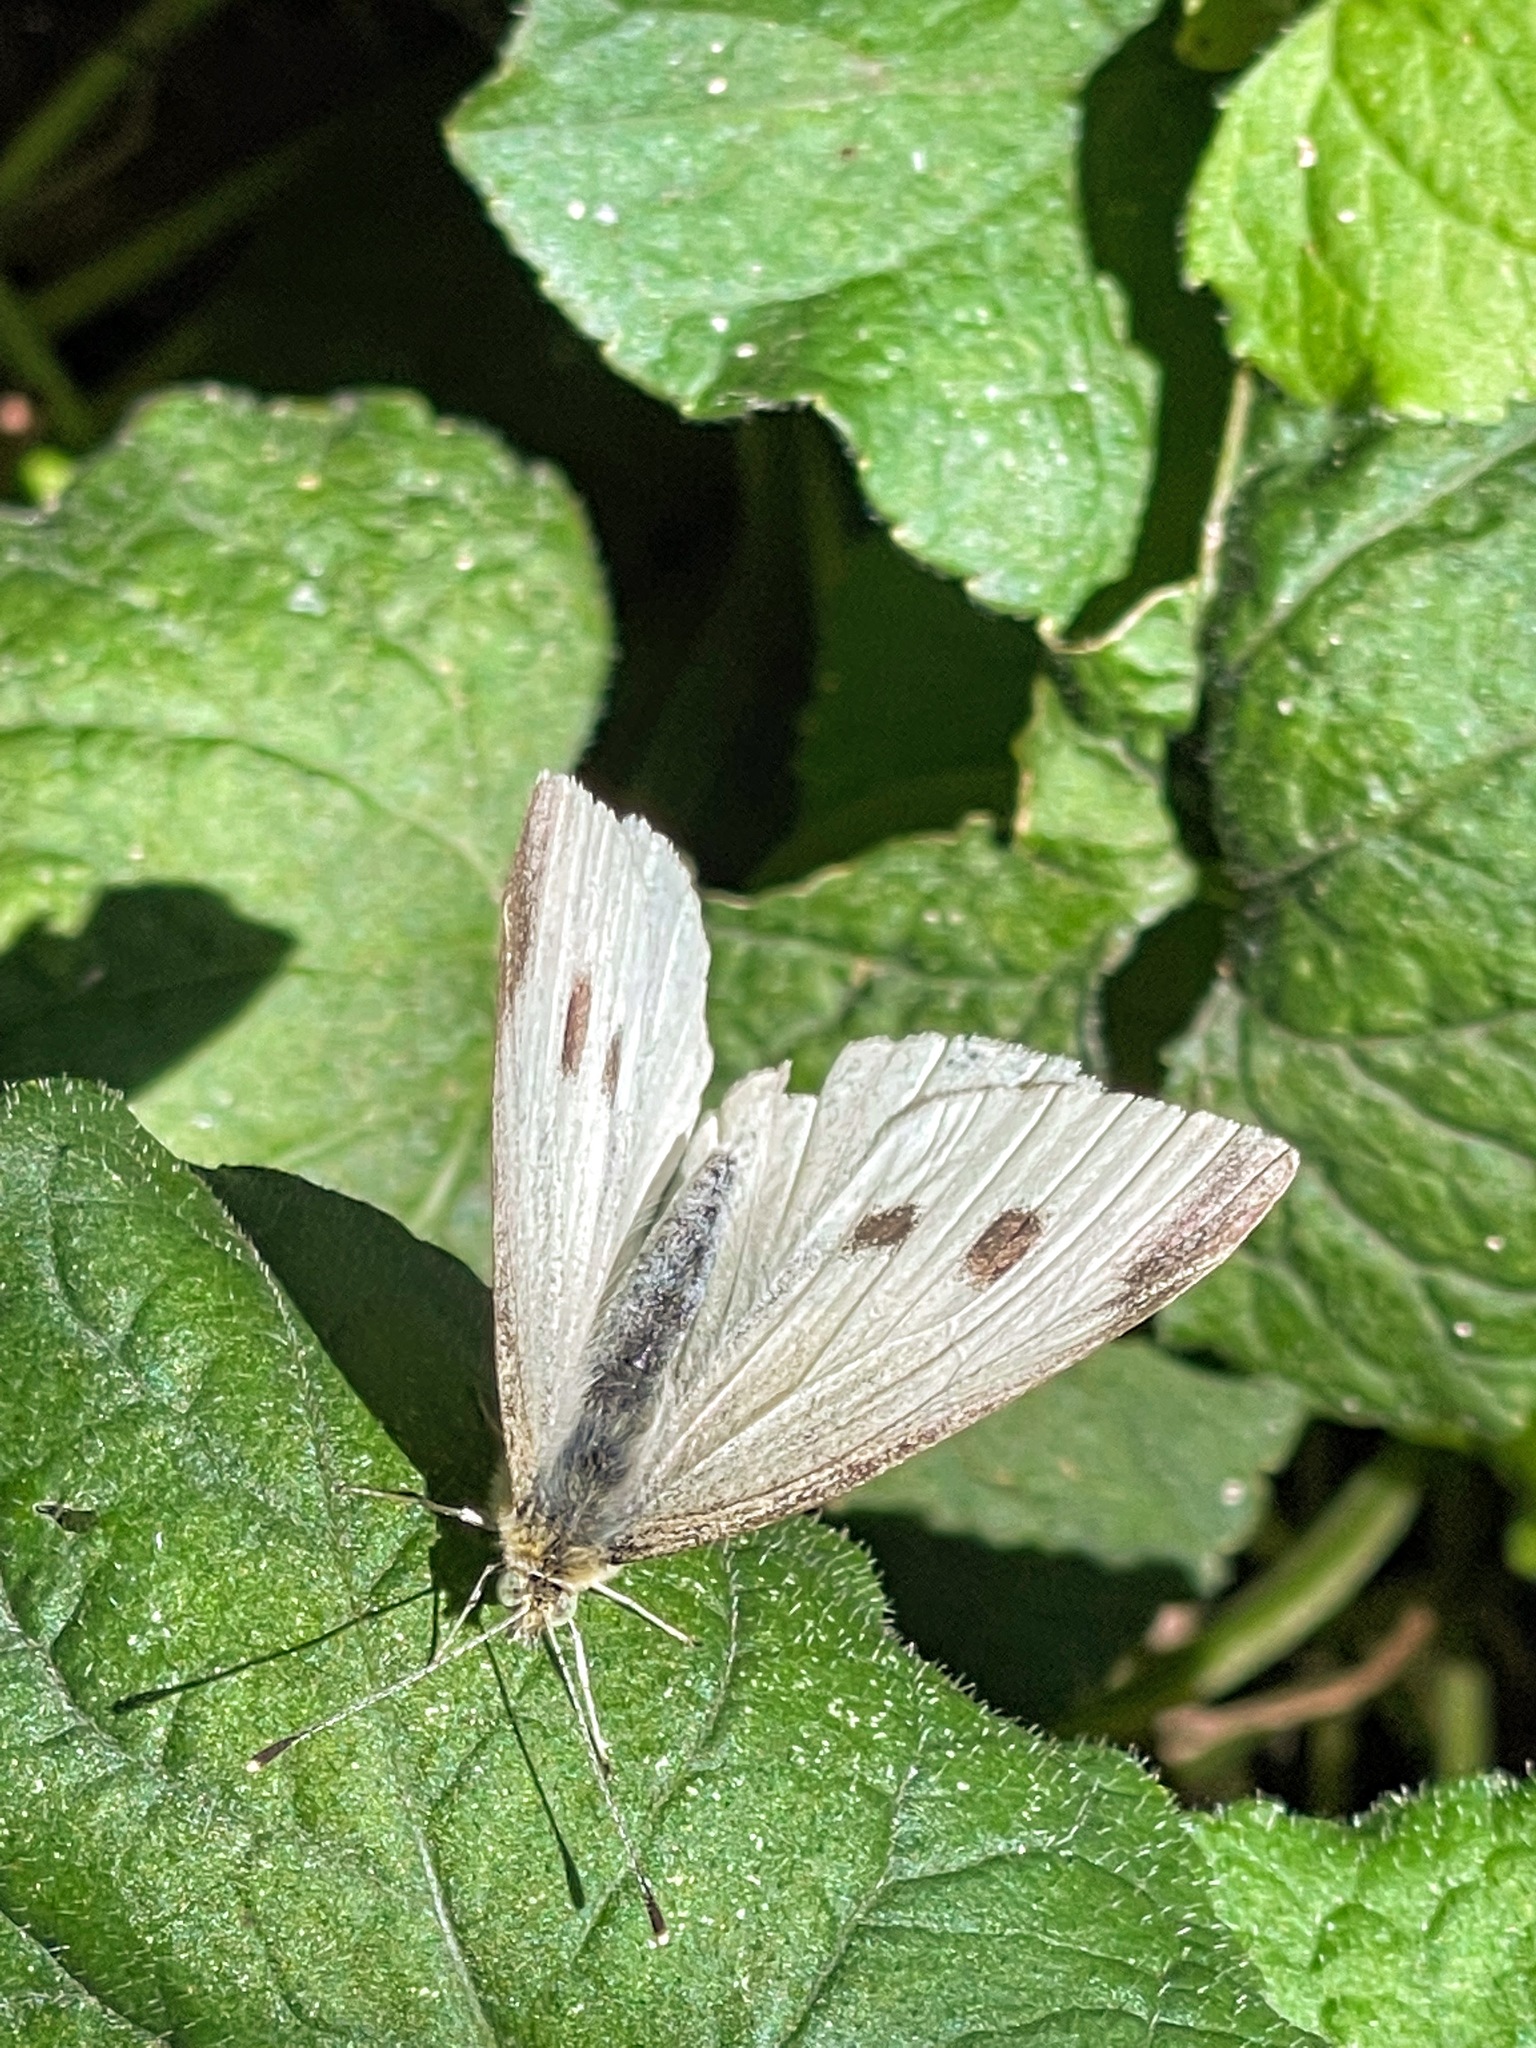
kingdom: Animalia
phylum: Arthropoda
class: Insecta
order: Lepidoptera
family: Pieridae
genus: Pieris
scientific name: Pieris rapae
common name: Small white
